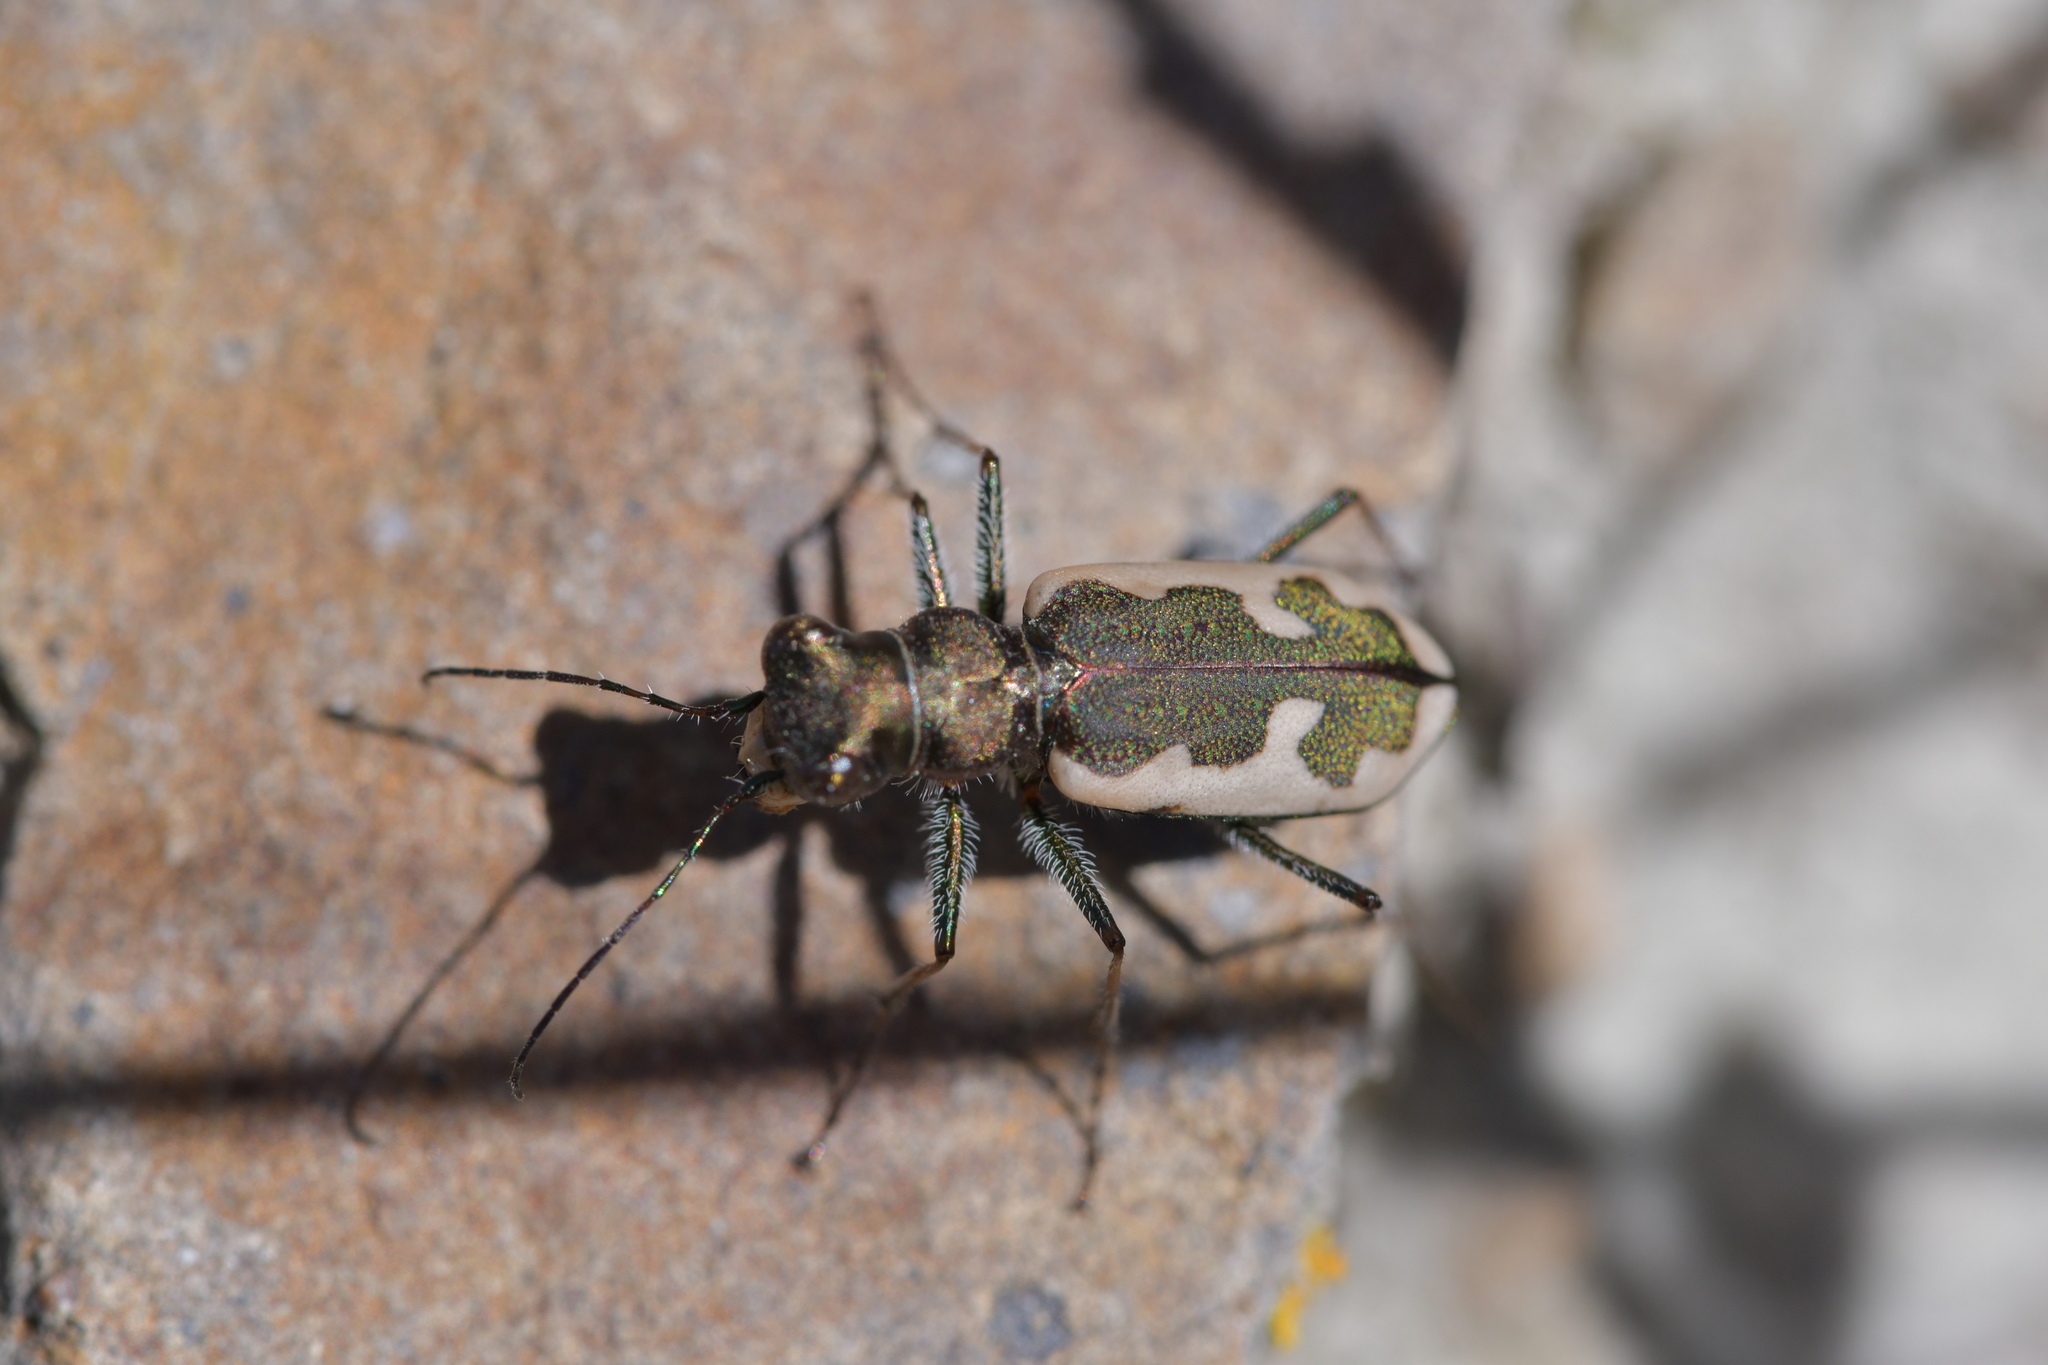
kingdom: Animalia
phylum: Arthropoda
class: Insecta
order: Coleoptera
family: Carabidae
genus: Neocicindela
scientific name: Neocicindela latecincta
